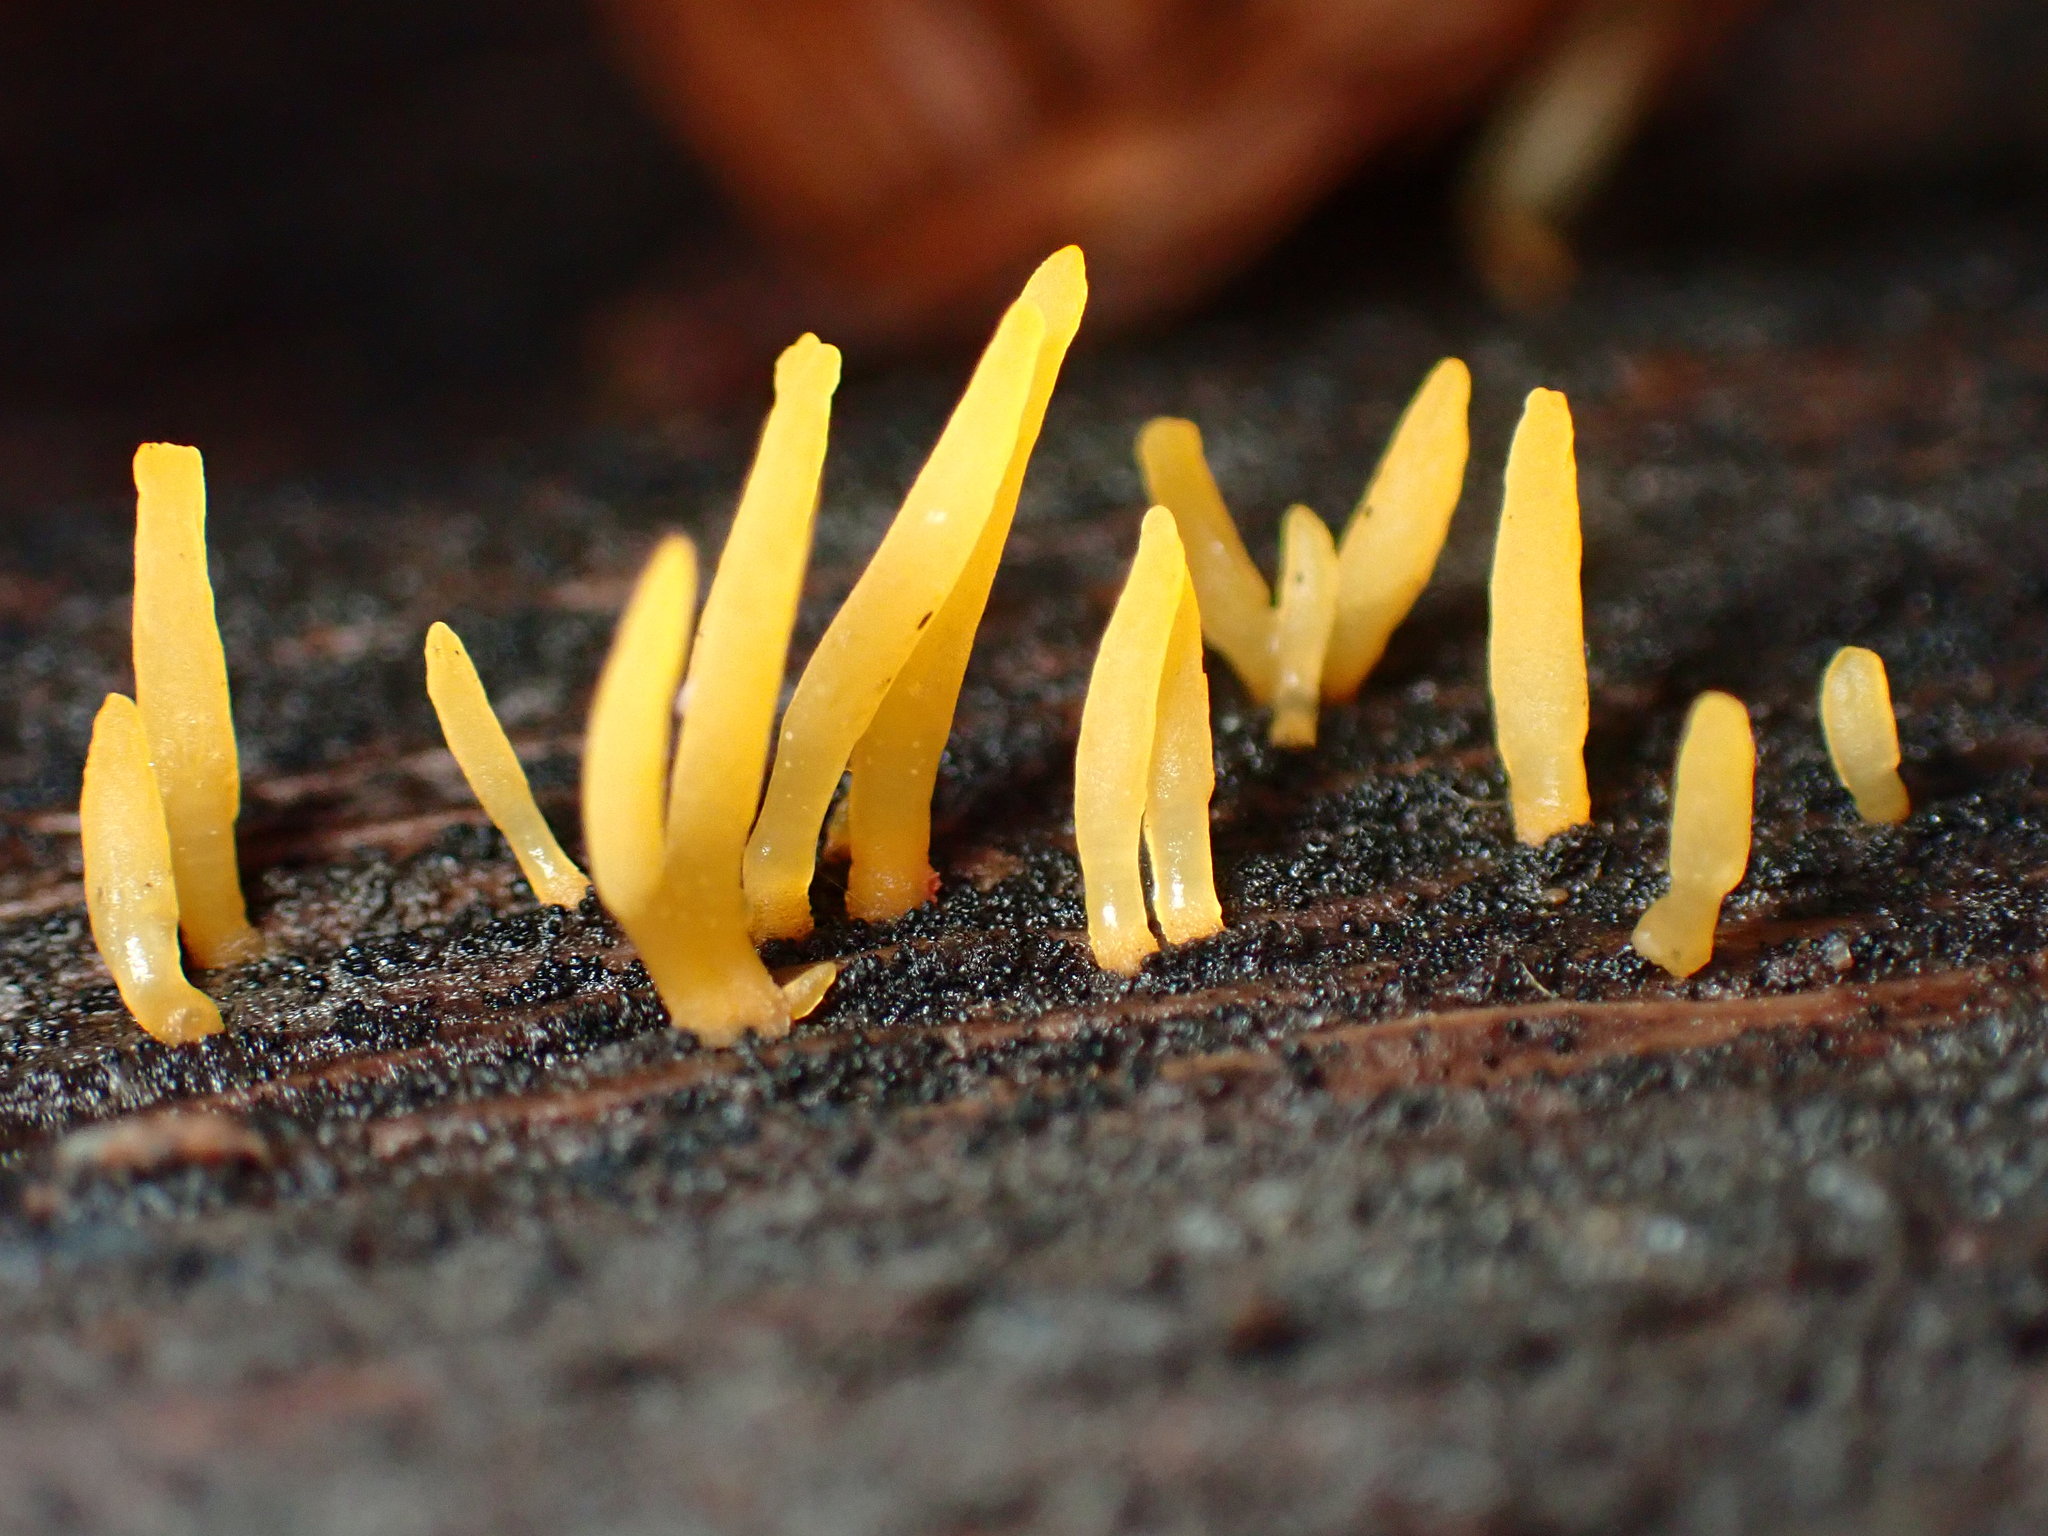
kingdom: Fungi
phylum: Basidiomycota
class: Dacrymycetes
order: Dacrymycetales
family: Dacrymycetaceae
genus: Calocera
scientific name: Calocera cornea
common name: Small stagshorn
